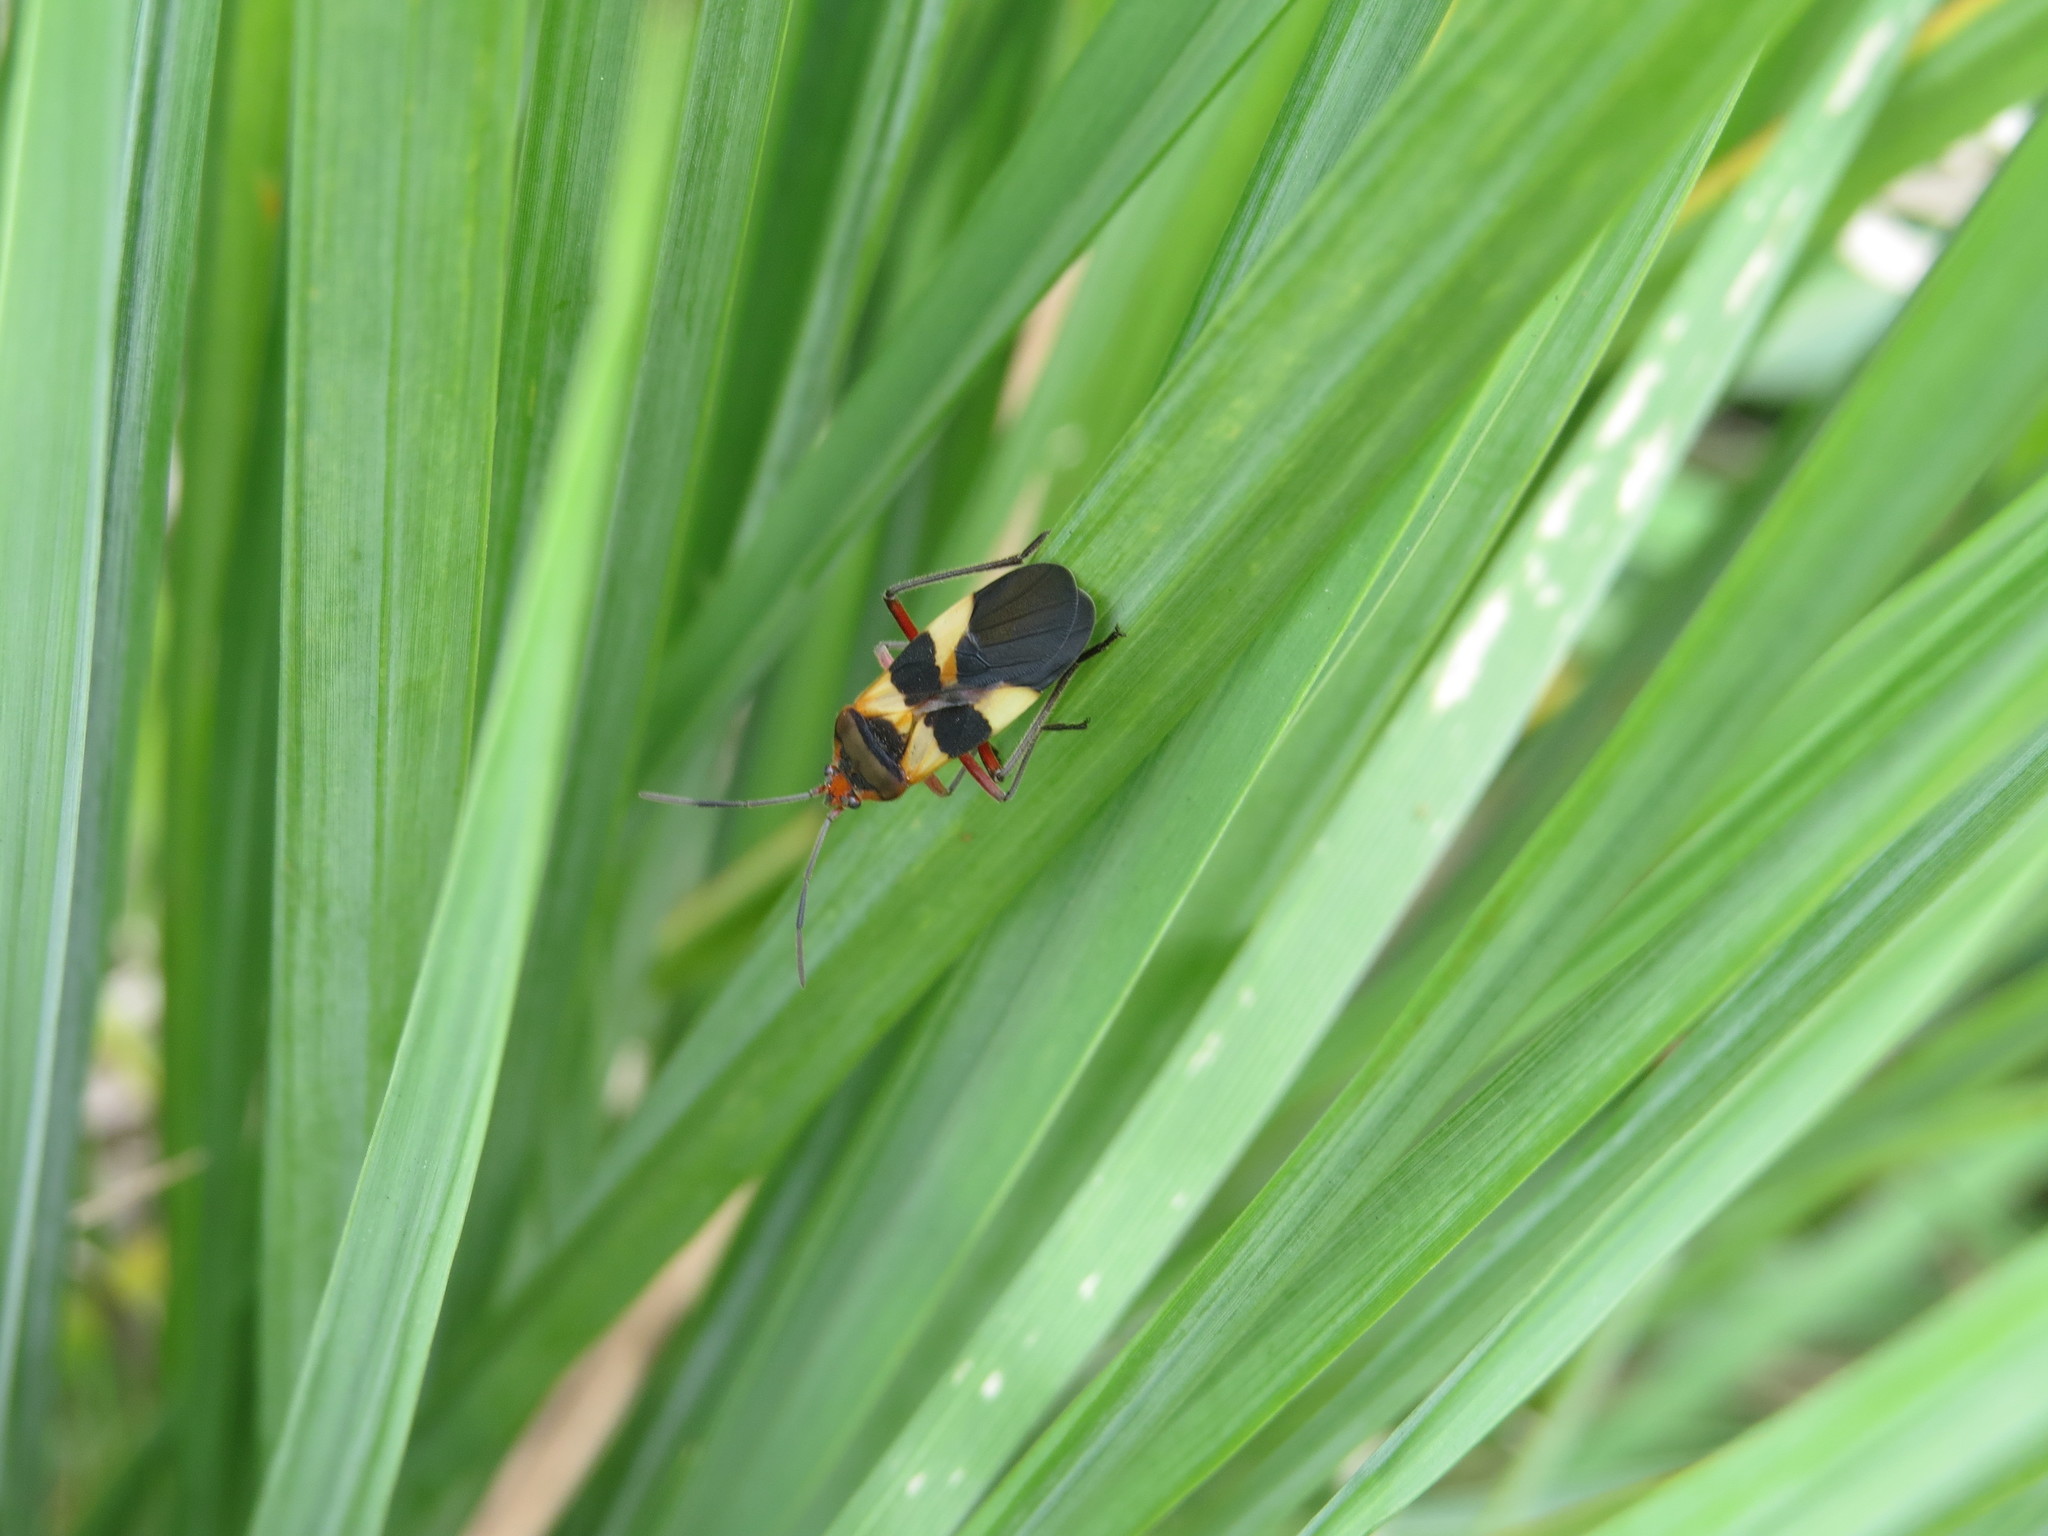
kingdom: Animalia
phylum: Arthropoda
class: Insecta
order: Hemiptera
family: Lygaeidae
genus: Oncopeltus
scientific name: Oncopeltus unifasciatellus
